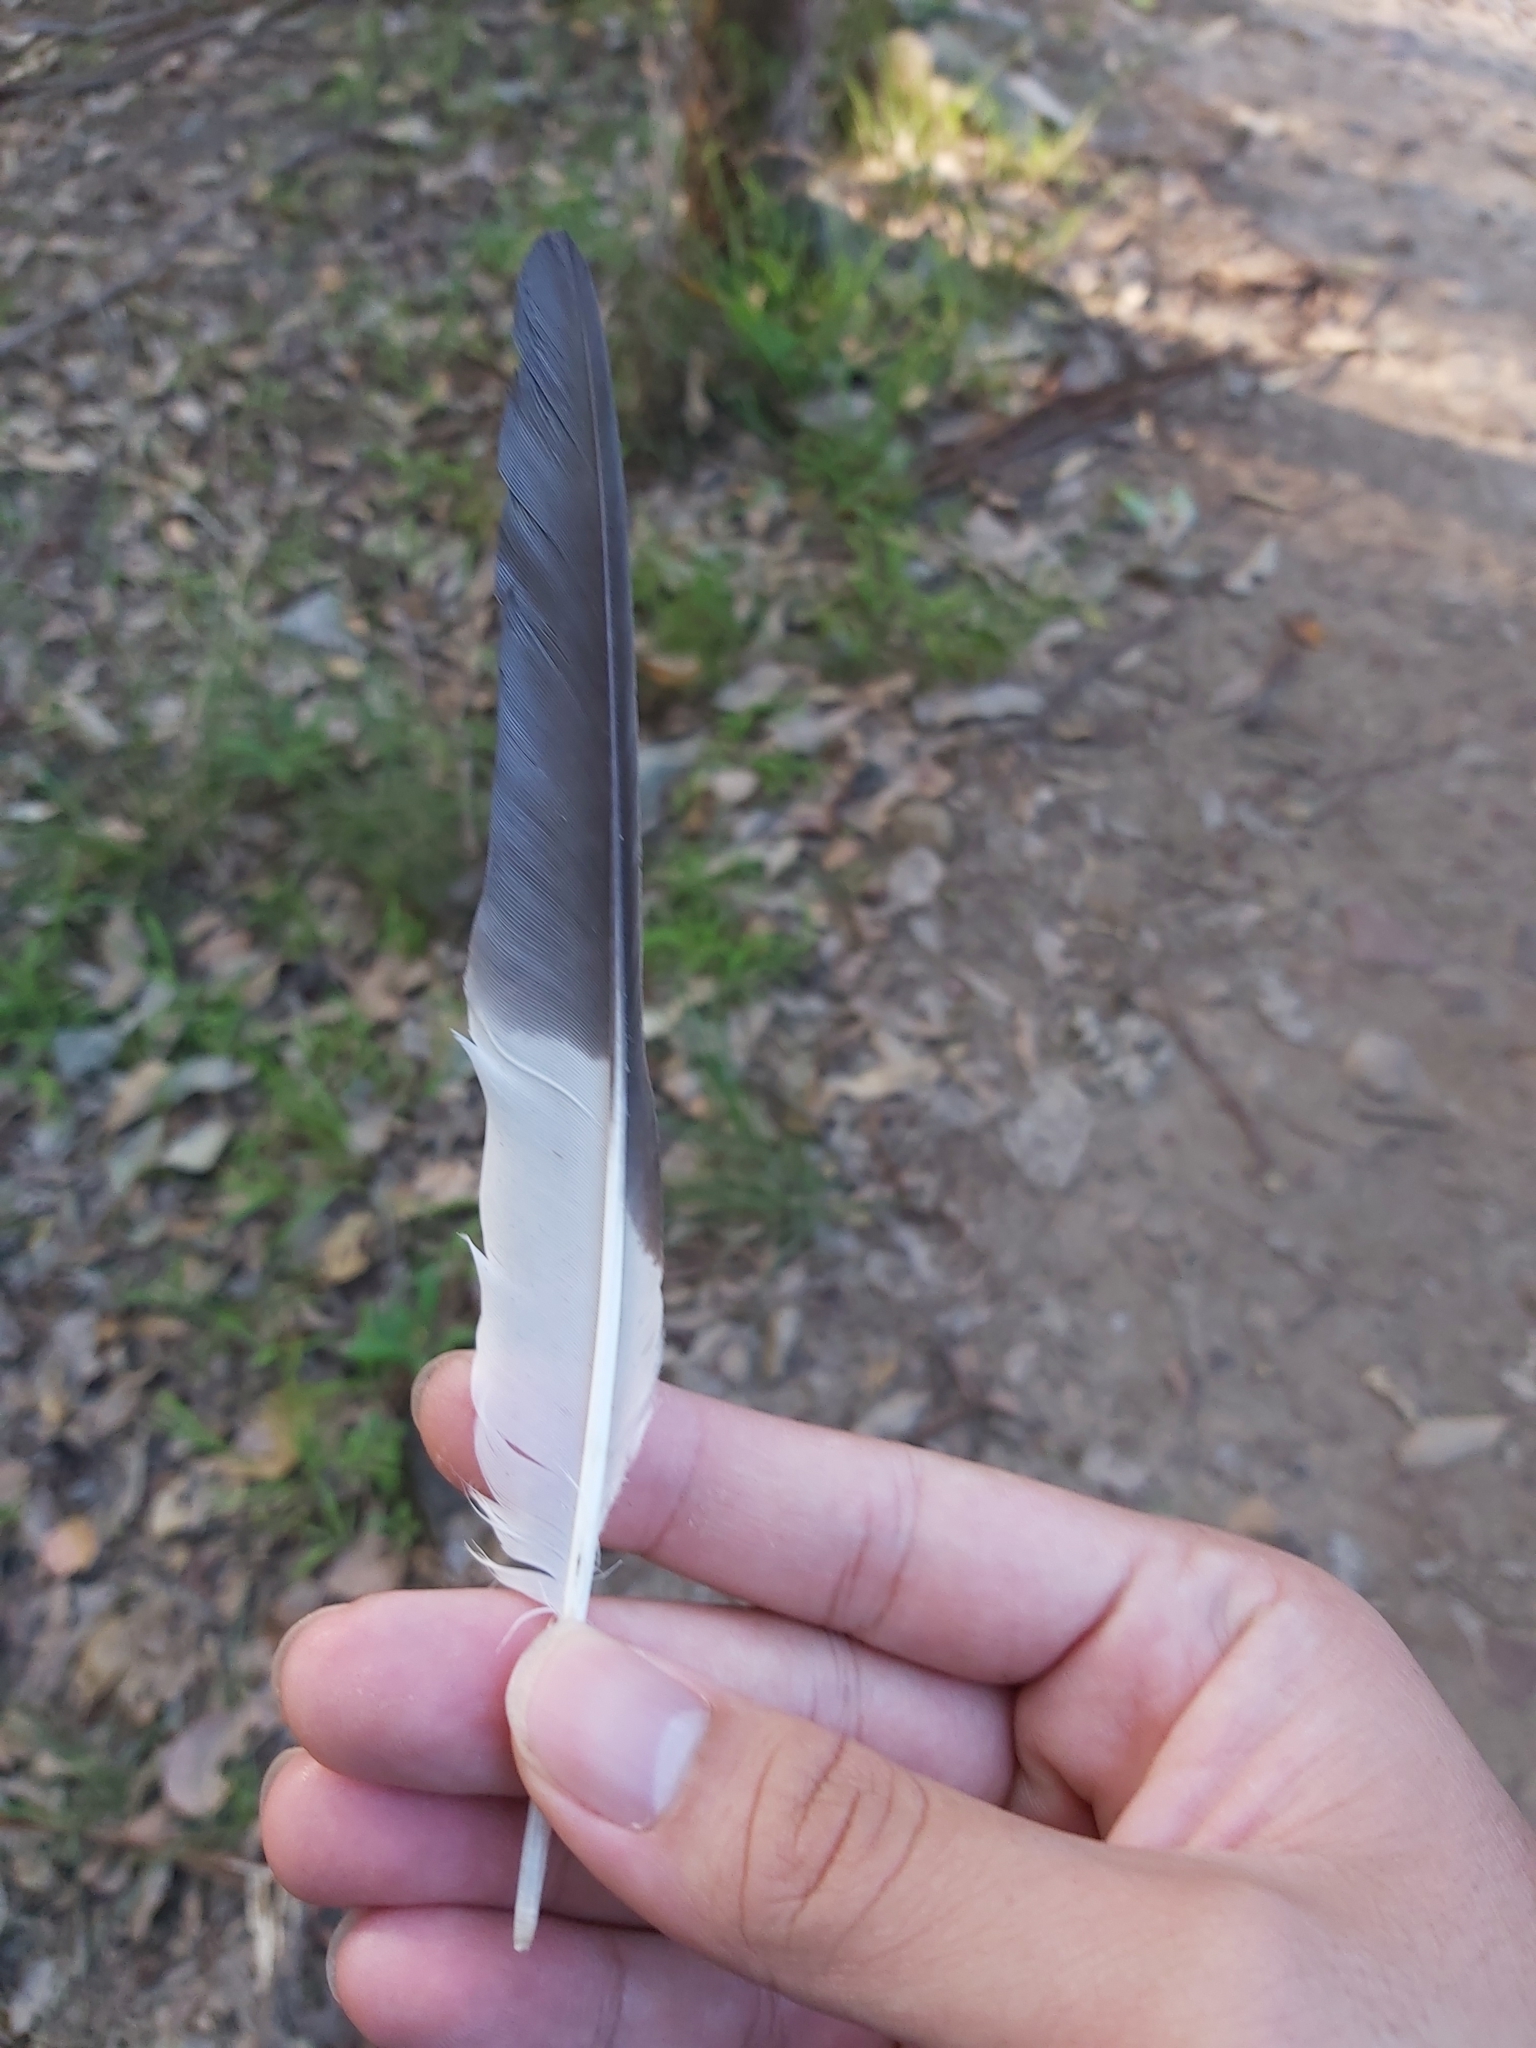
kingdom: Animalia
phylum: Chordata
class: Aves
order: Coraciiformes
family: Alcedinidae
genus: Dacelo
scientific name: Dacelo novaeguineae
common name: Laughing kookaburra
